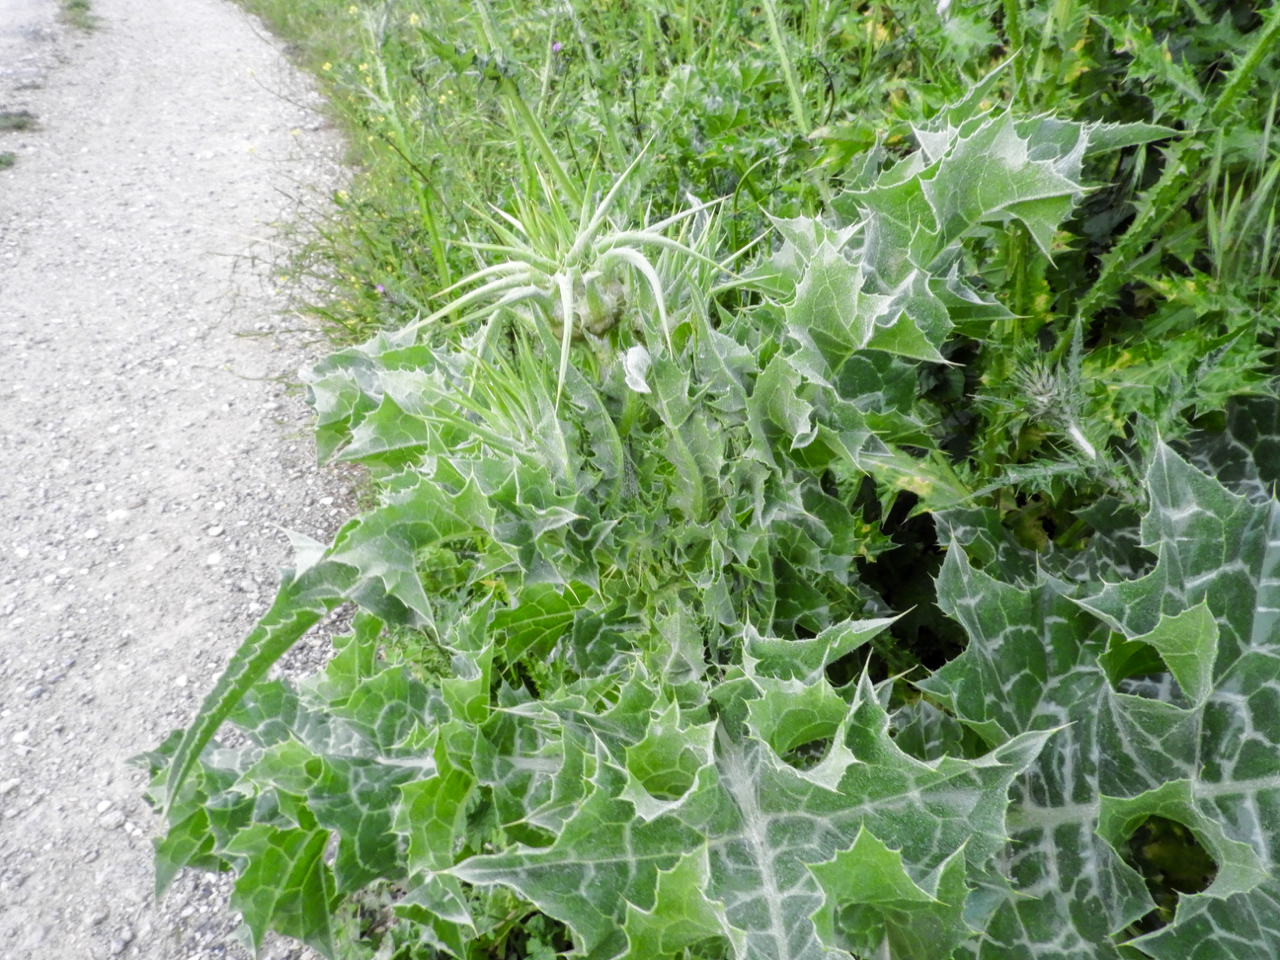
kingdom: Plantae
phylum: Tracheophyta
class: Magnoliopsida
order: Asterales
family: Asteraceae
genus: Silybum
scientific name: Silybum marianum
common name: Milk thistle
